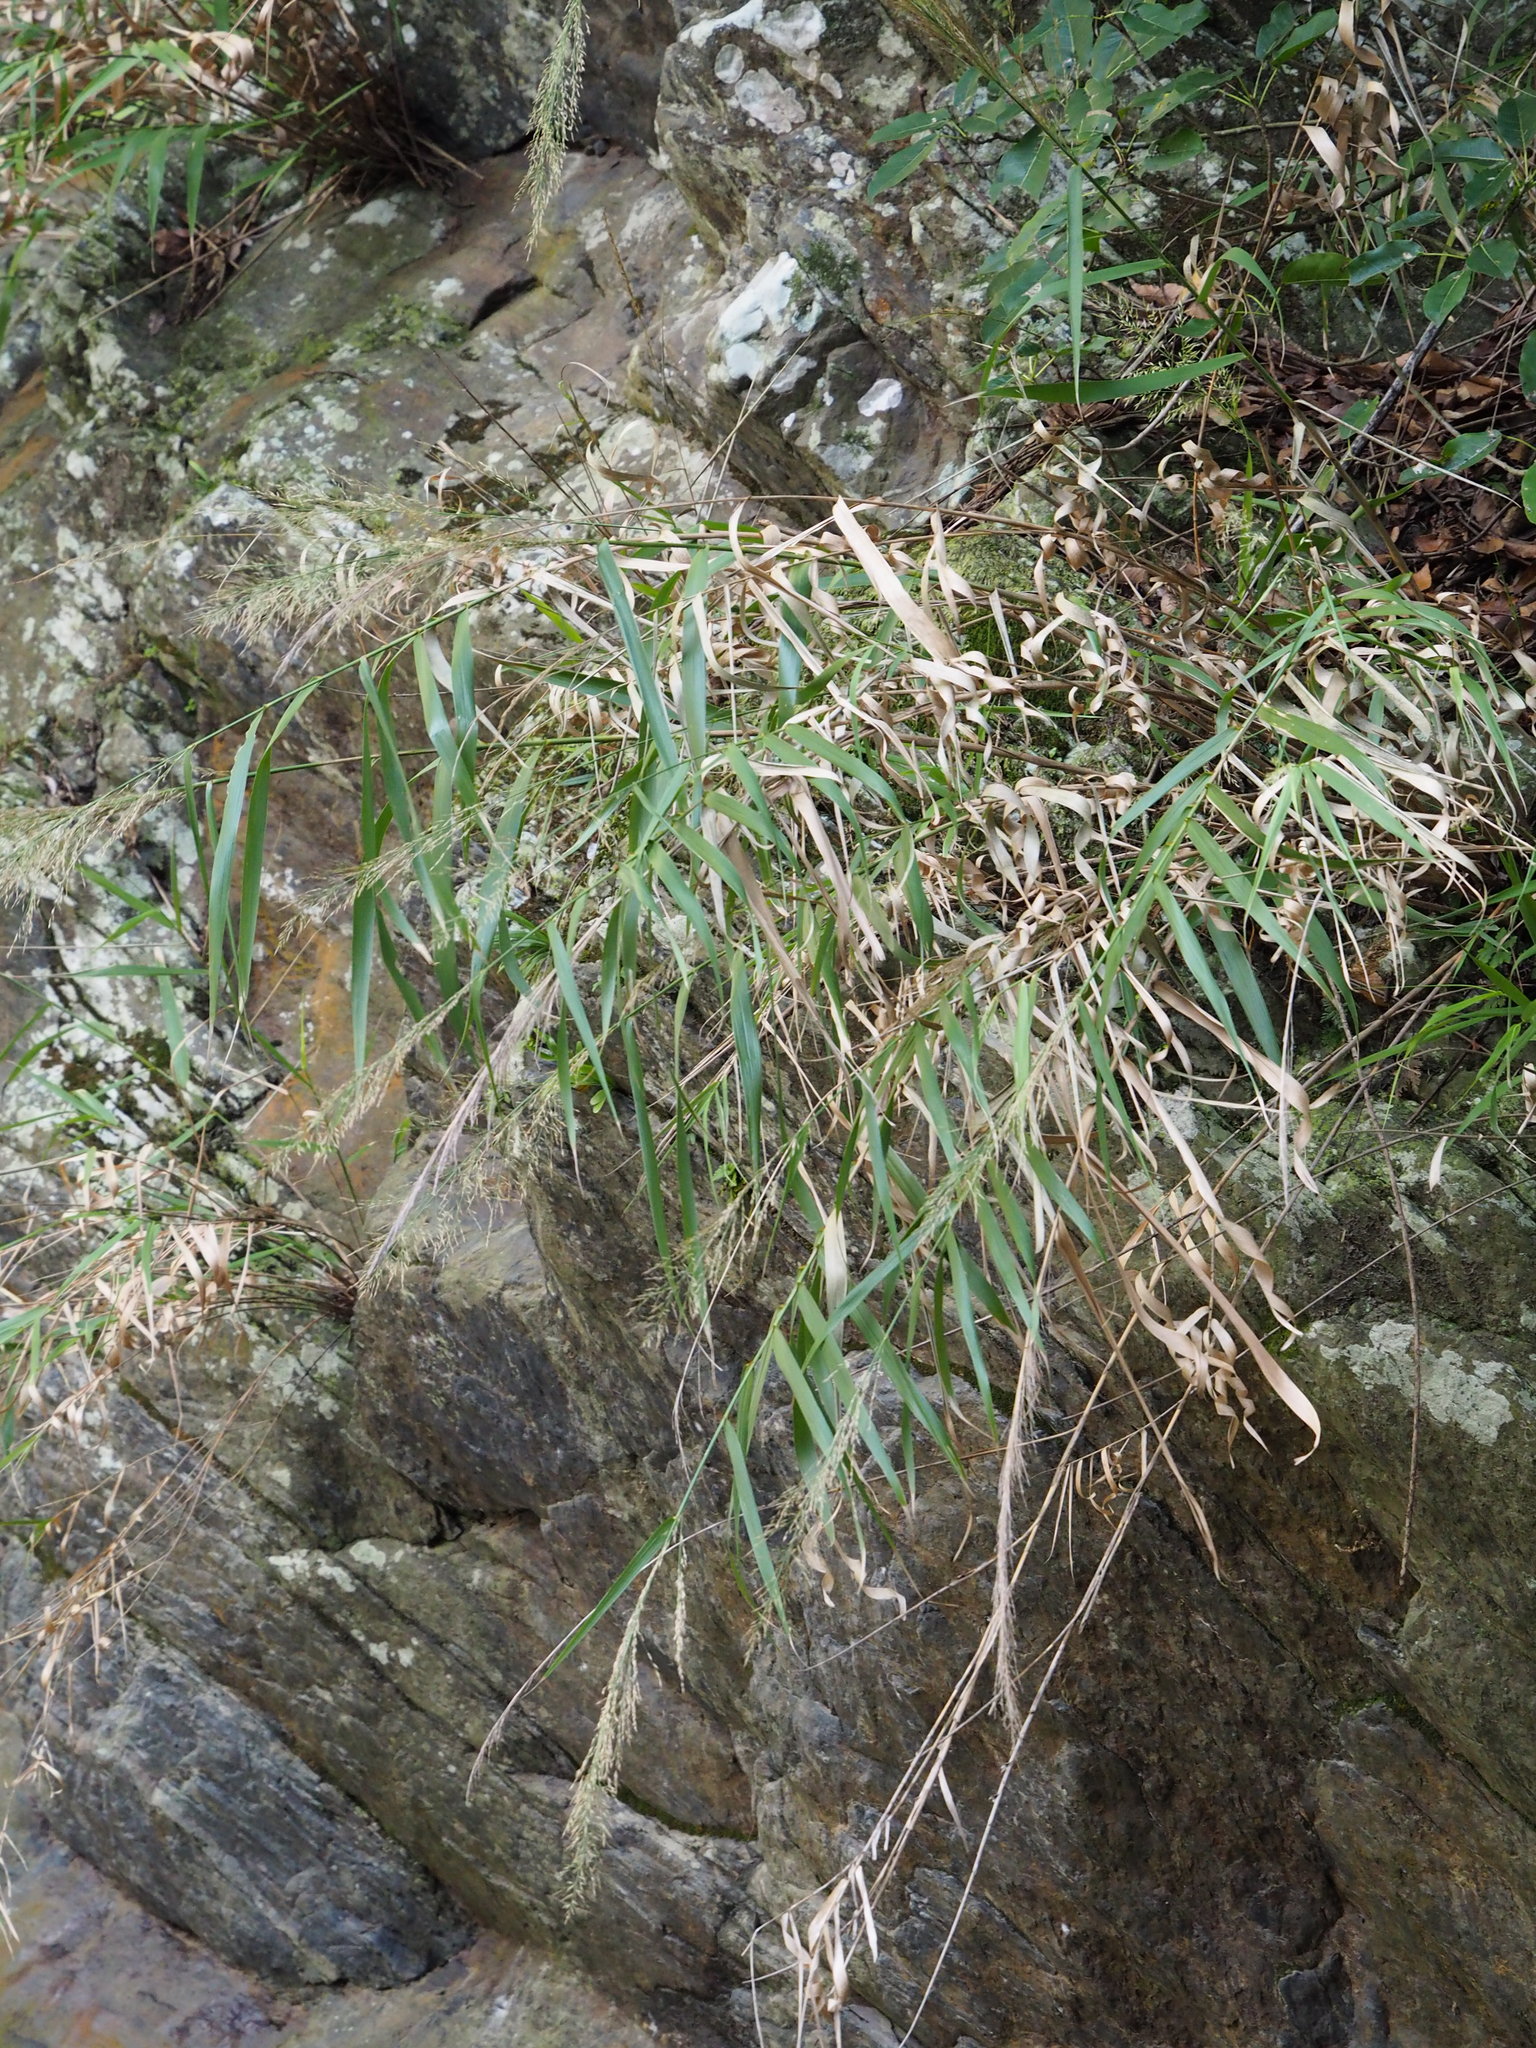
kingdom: Plantae
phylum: Tracheophyta
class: Liliopsida
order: Poales
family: Poaceae
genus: Arundo
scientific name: Arundo formosana
